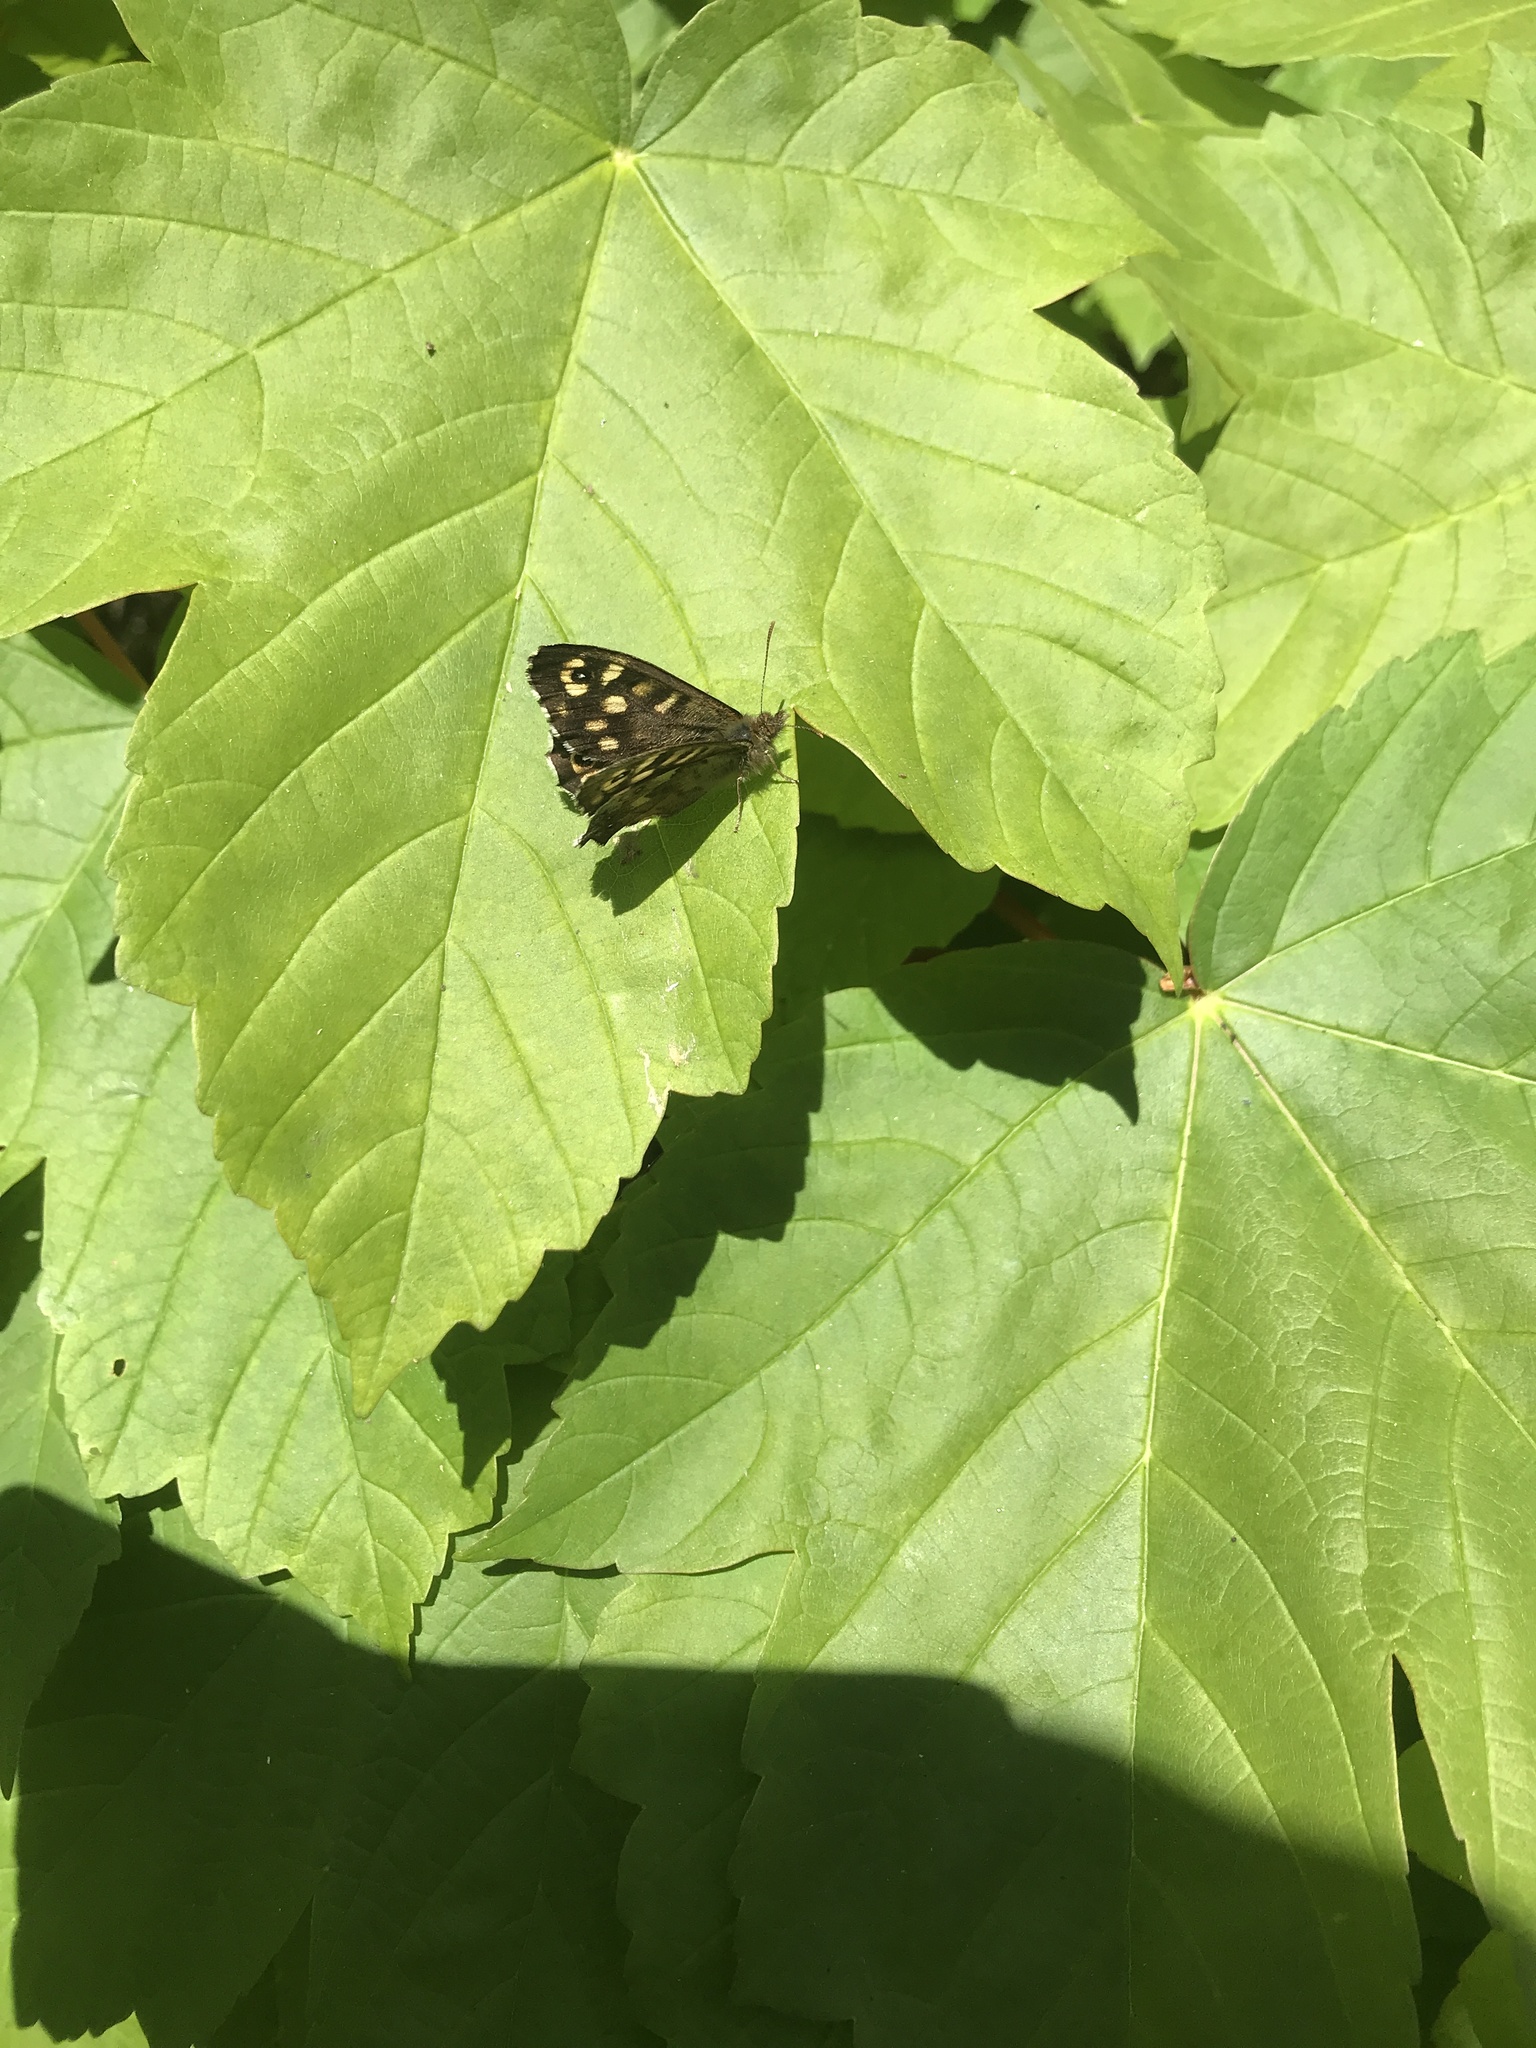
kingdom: Animalia
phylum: Arthropoda
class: Insecta
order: Lepidoptera
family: Nymphalidae
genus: Pararge
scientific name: Pararge aegeria
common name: Speckled wood
